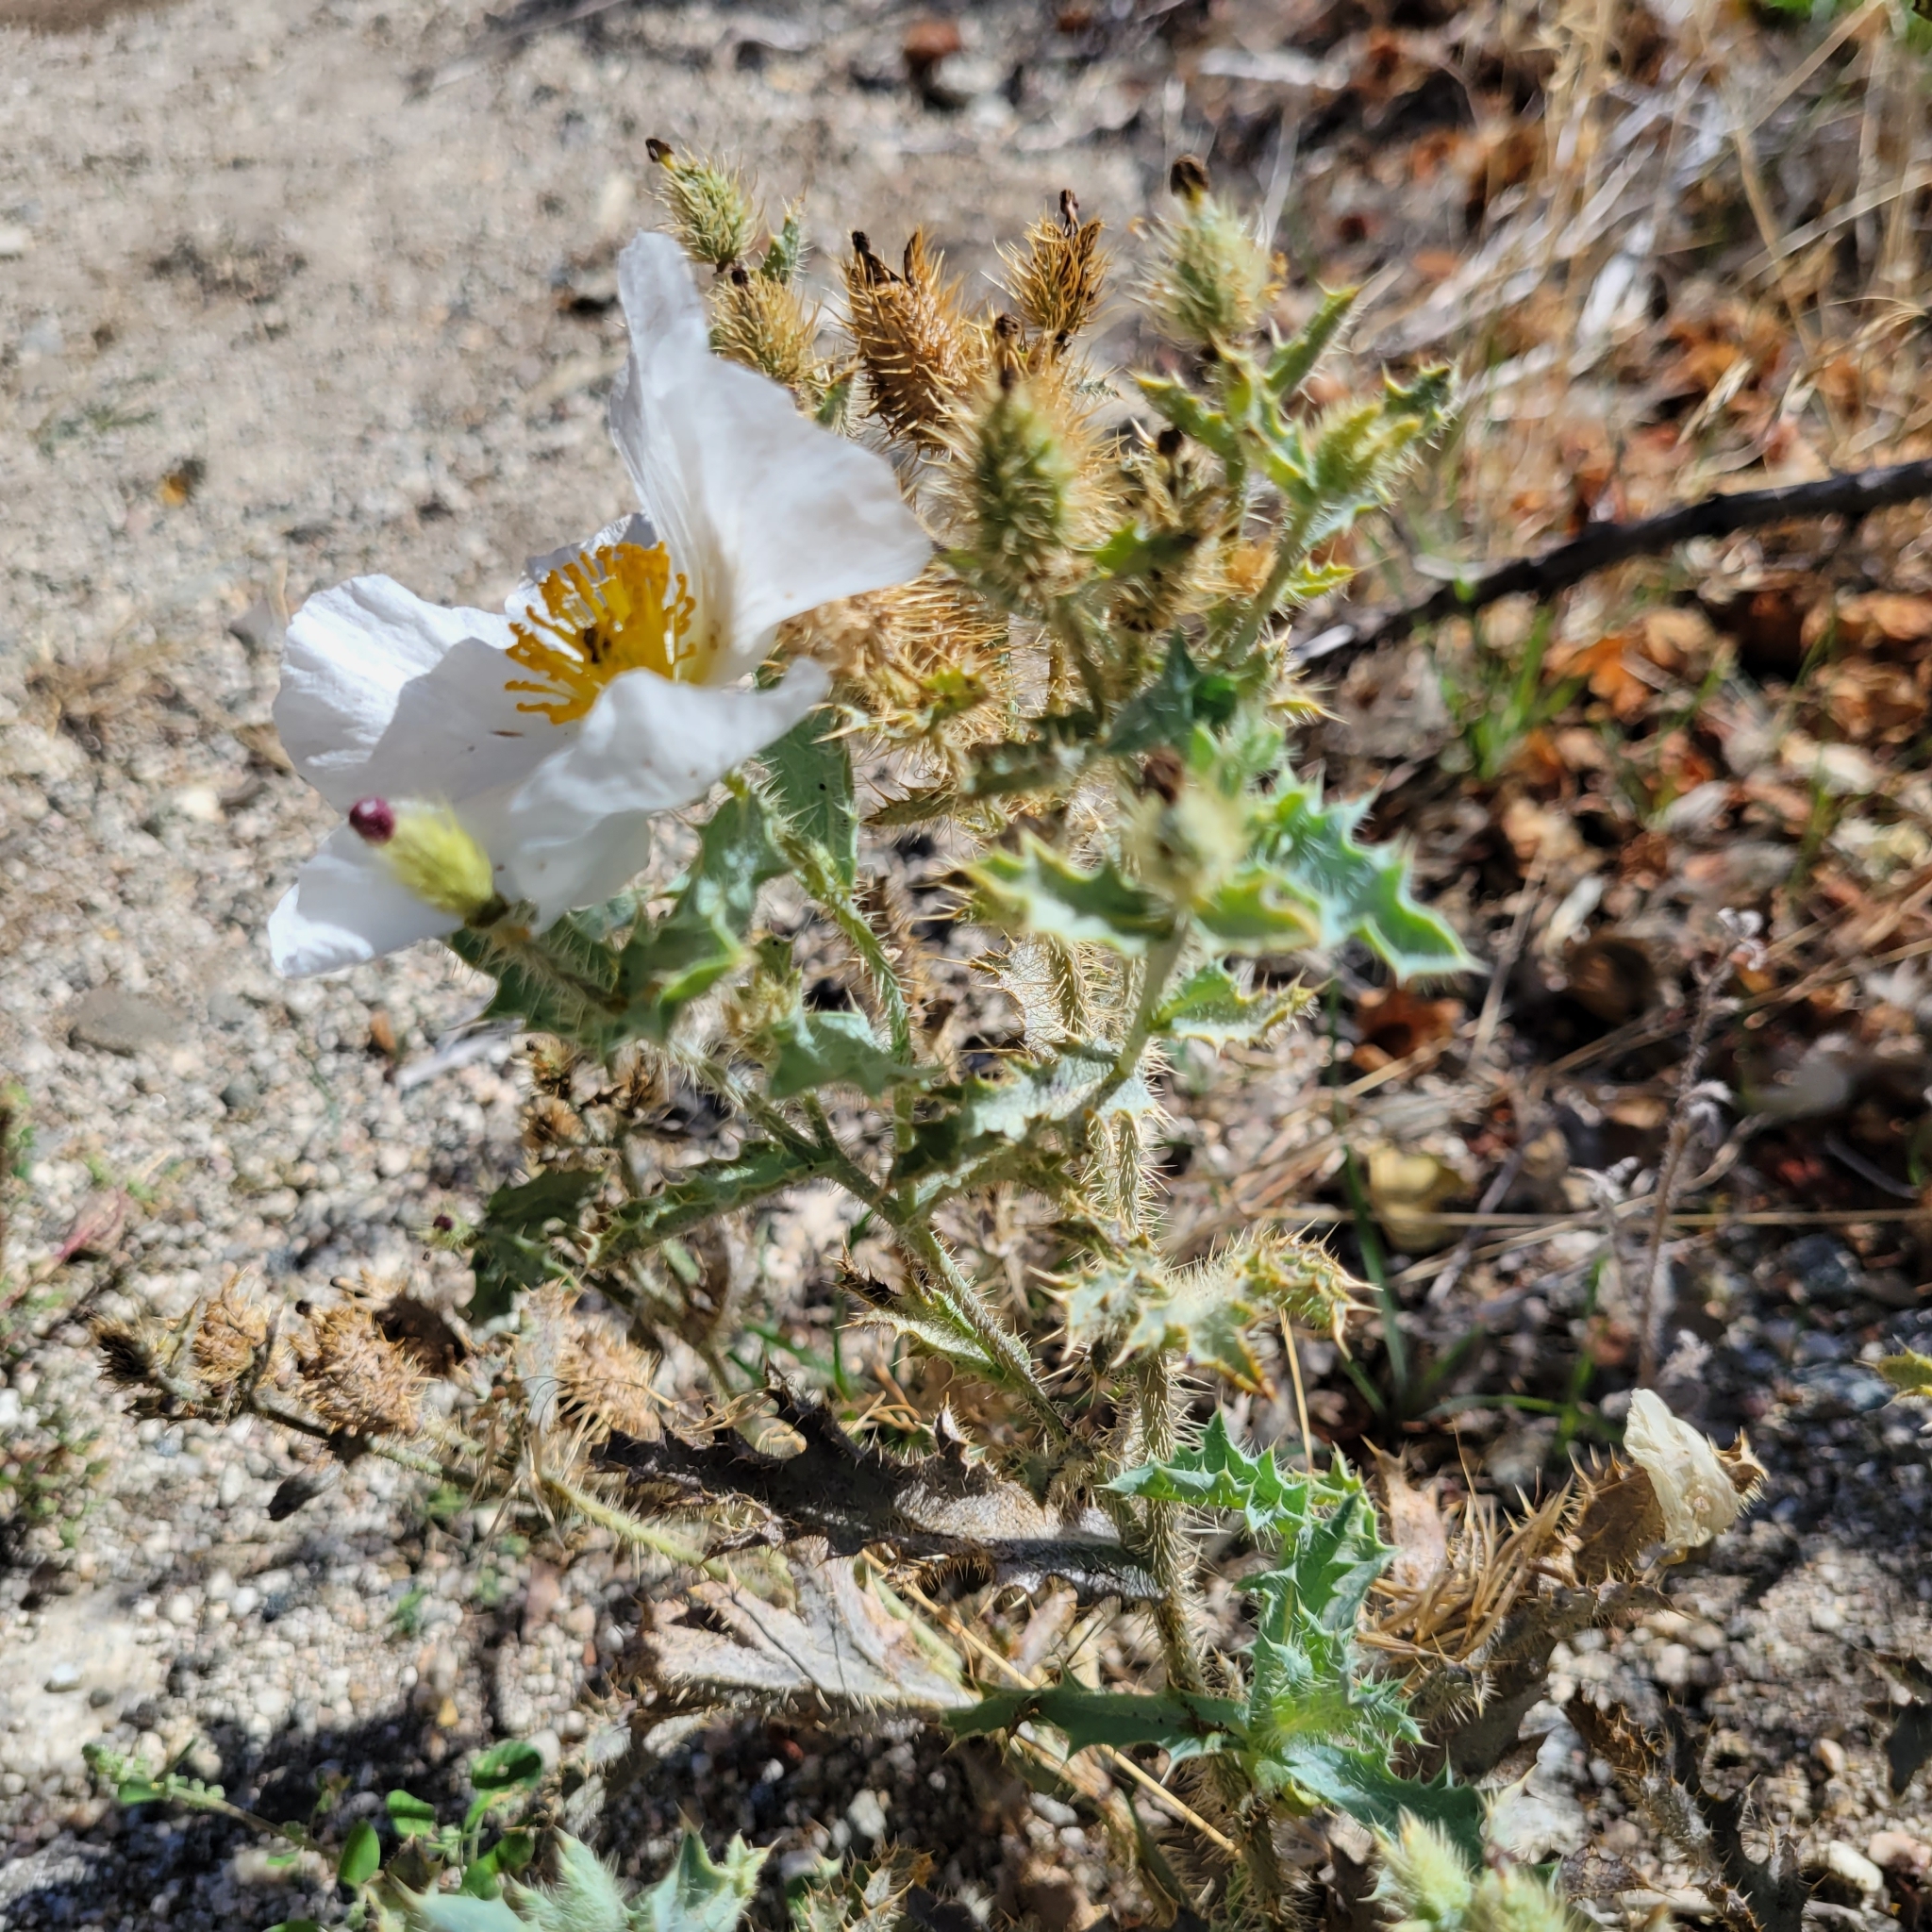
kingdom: Plantae
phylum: Tracheophyta
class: Magnoliopsida
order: Ranunculales
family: Papaveraceae
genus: Argemone
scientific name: Argemone munita
